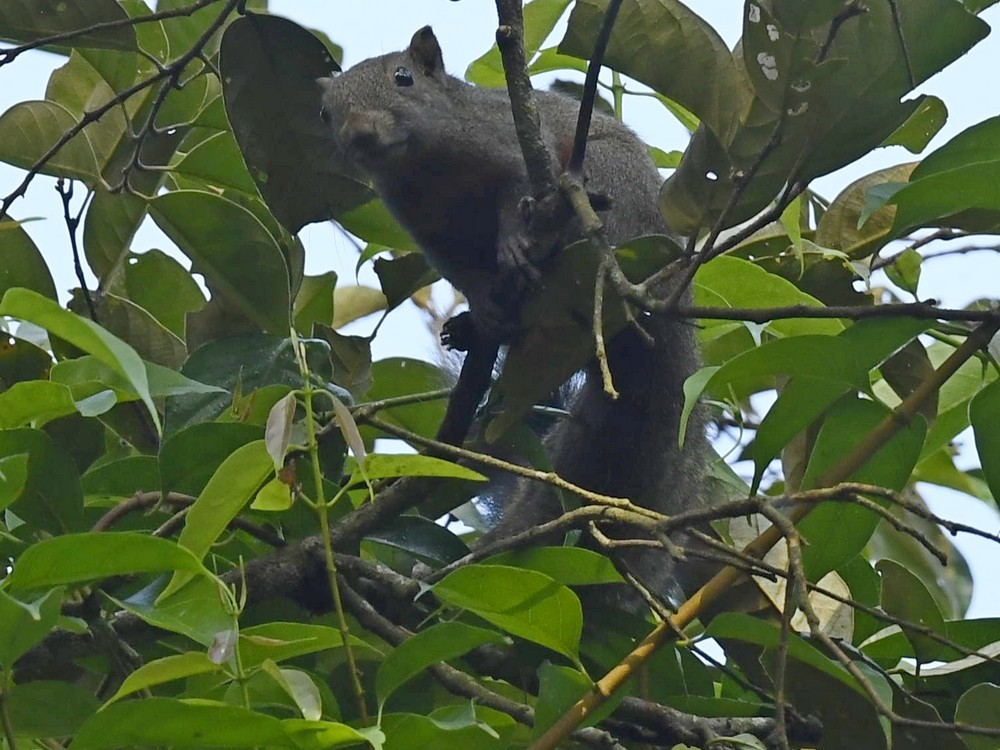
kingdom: Animalia
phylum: Chordata
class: Mammalia
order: Rodentia
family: Sciuridae
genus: Callosciurus
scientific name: Callosciurus erythraeus
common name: Pallas's squirrel
